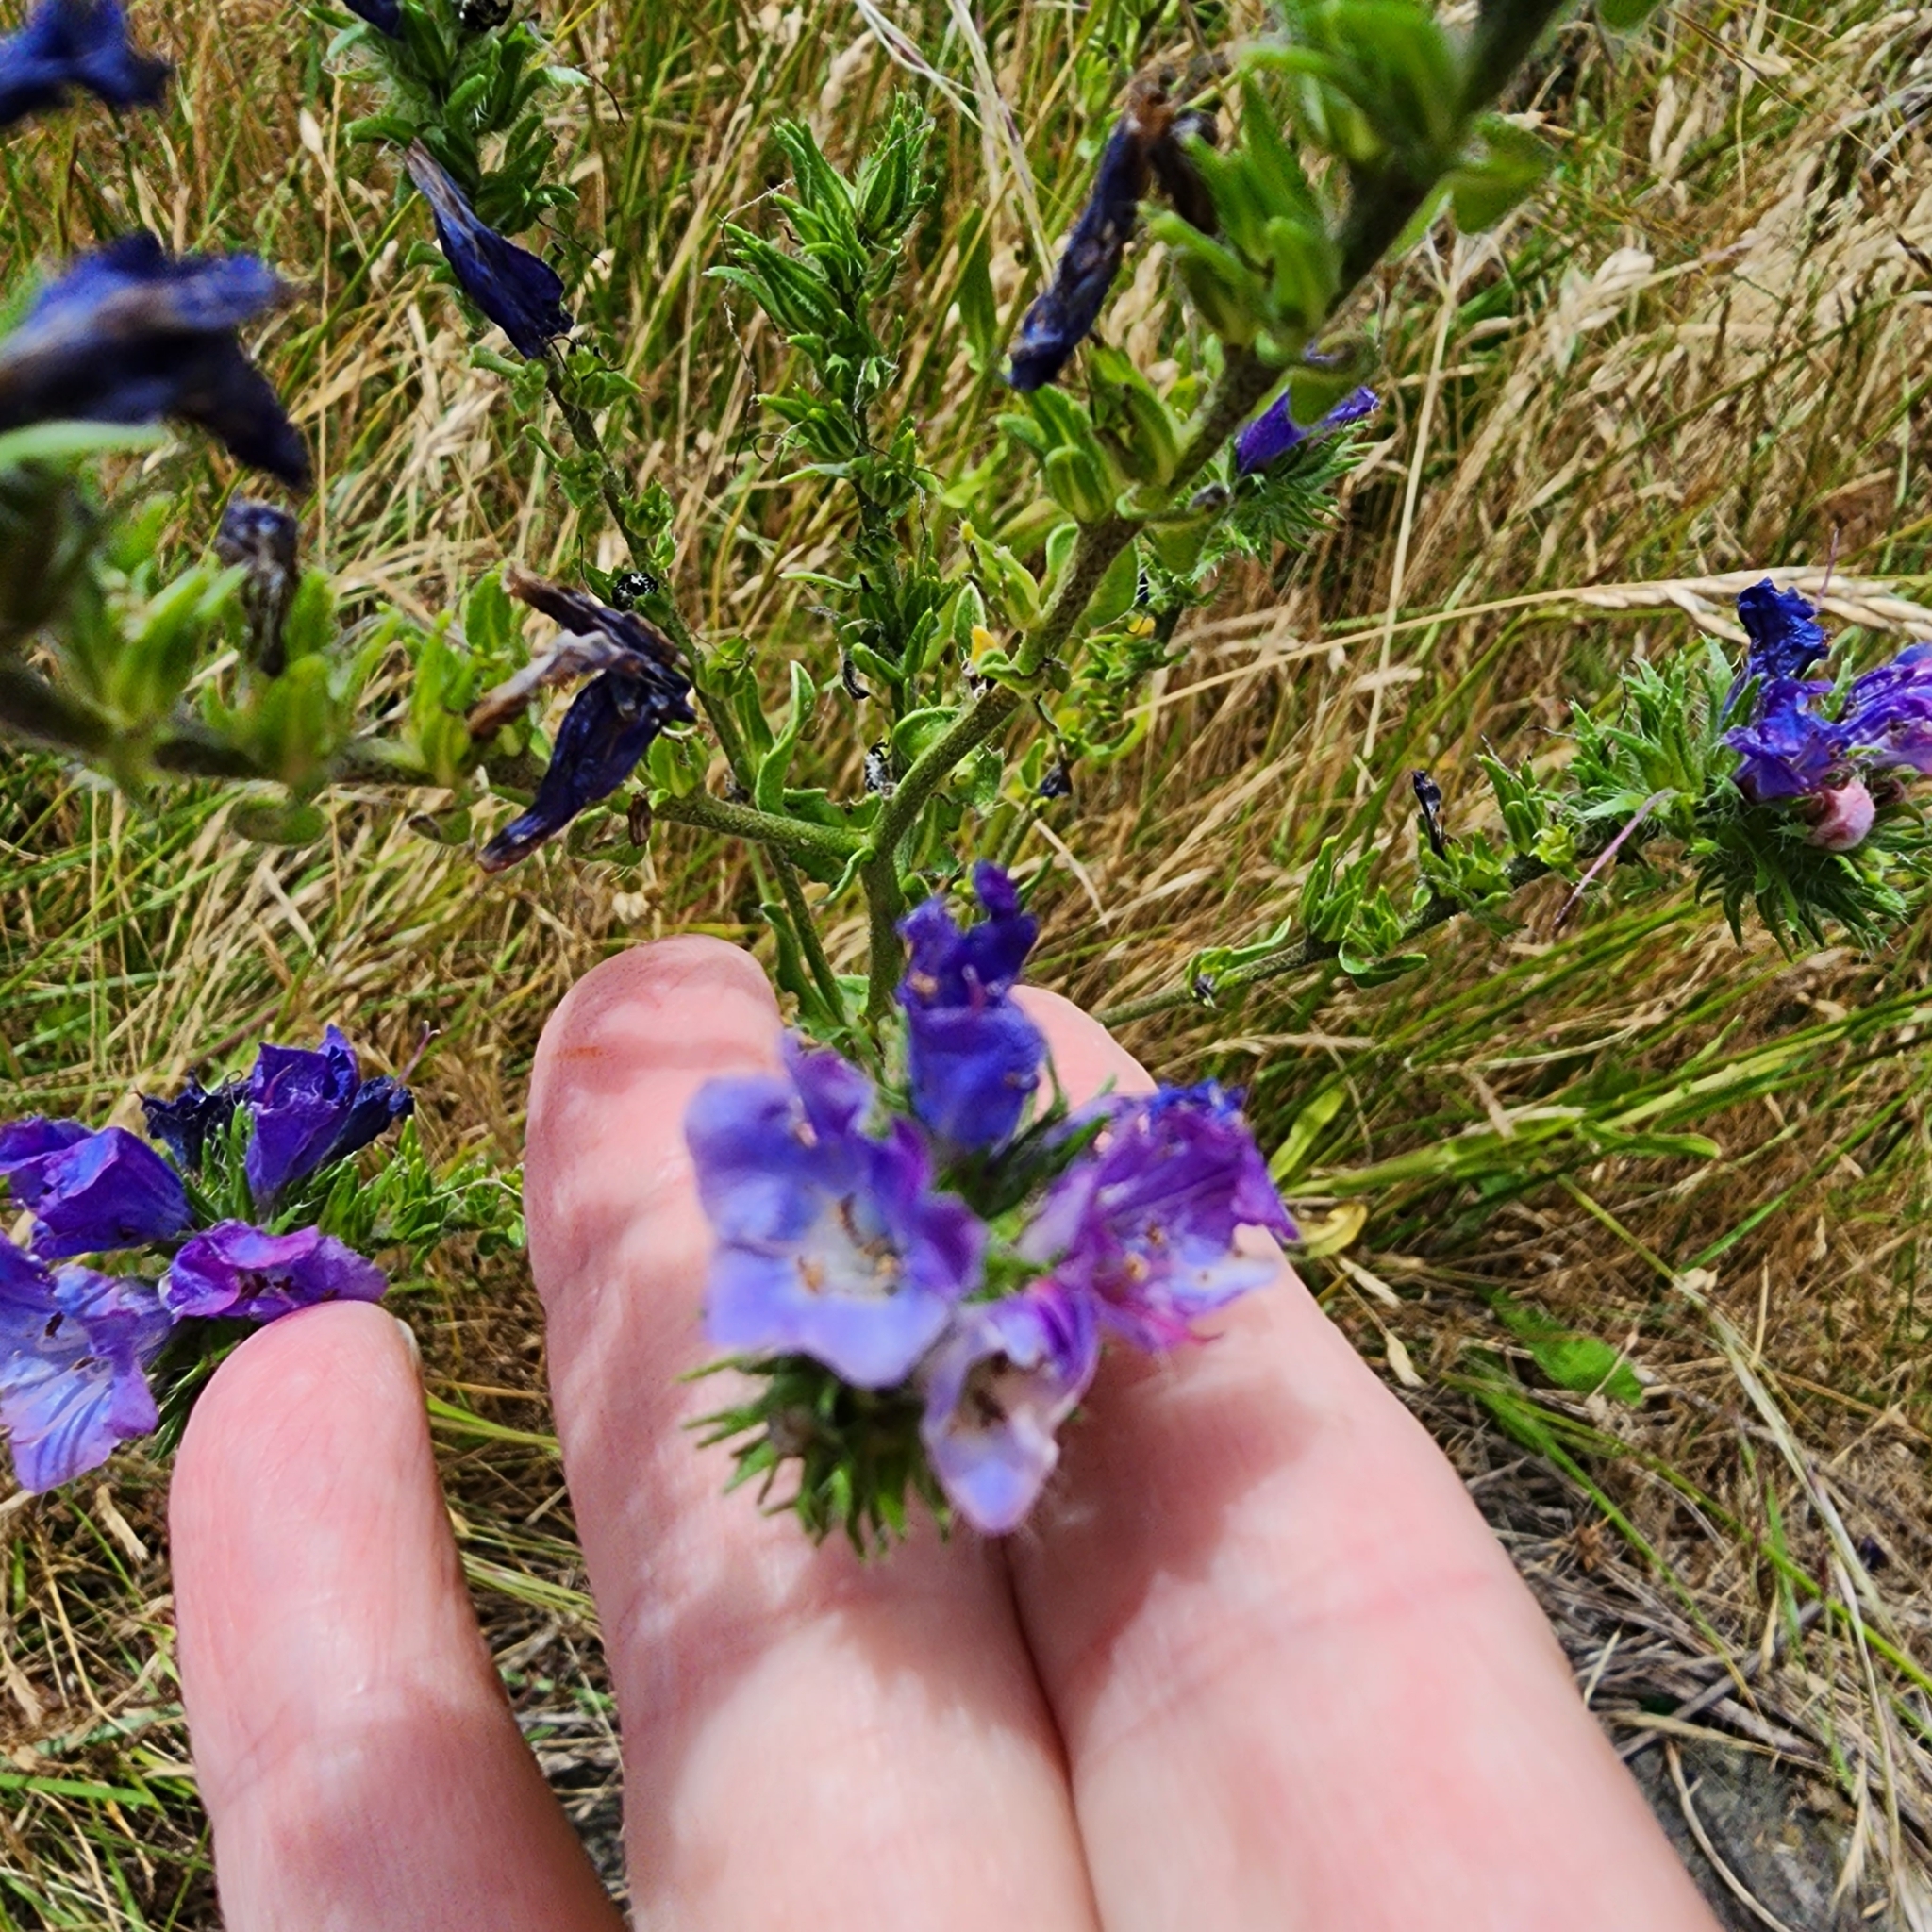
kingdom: Plantae
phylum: Tracheophyta
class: Magnoliopsida
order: Boraginales
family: Boraginaceae
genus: Echium
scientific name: Echium plantagineum
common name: Purple viper's-bugloss
